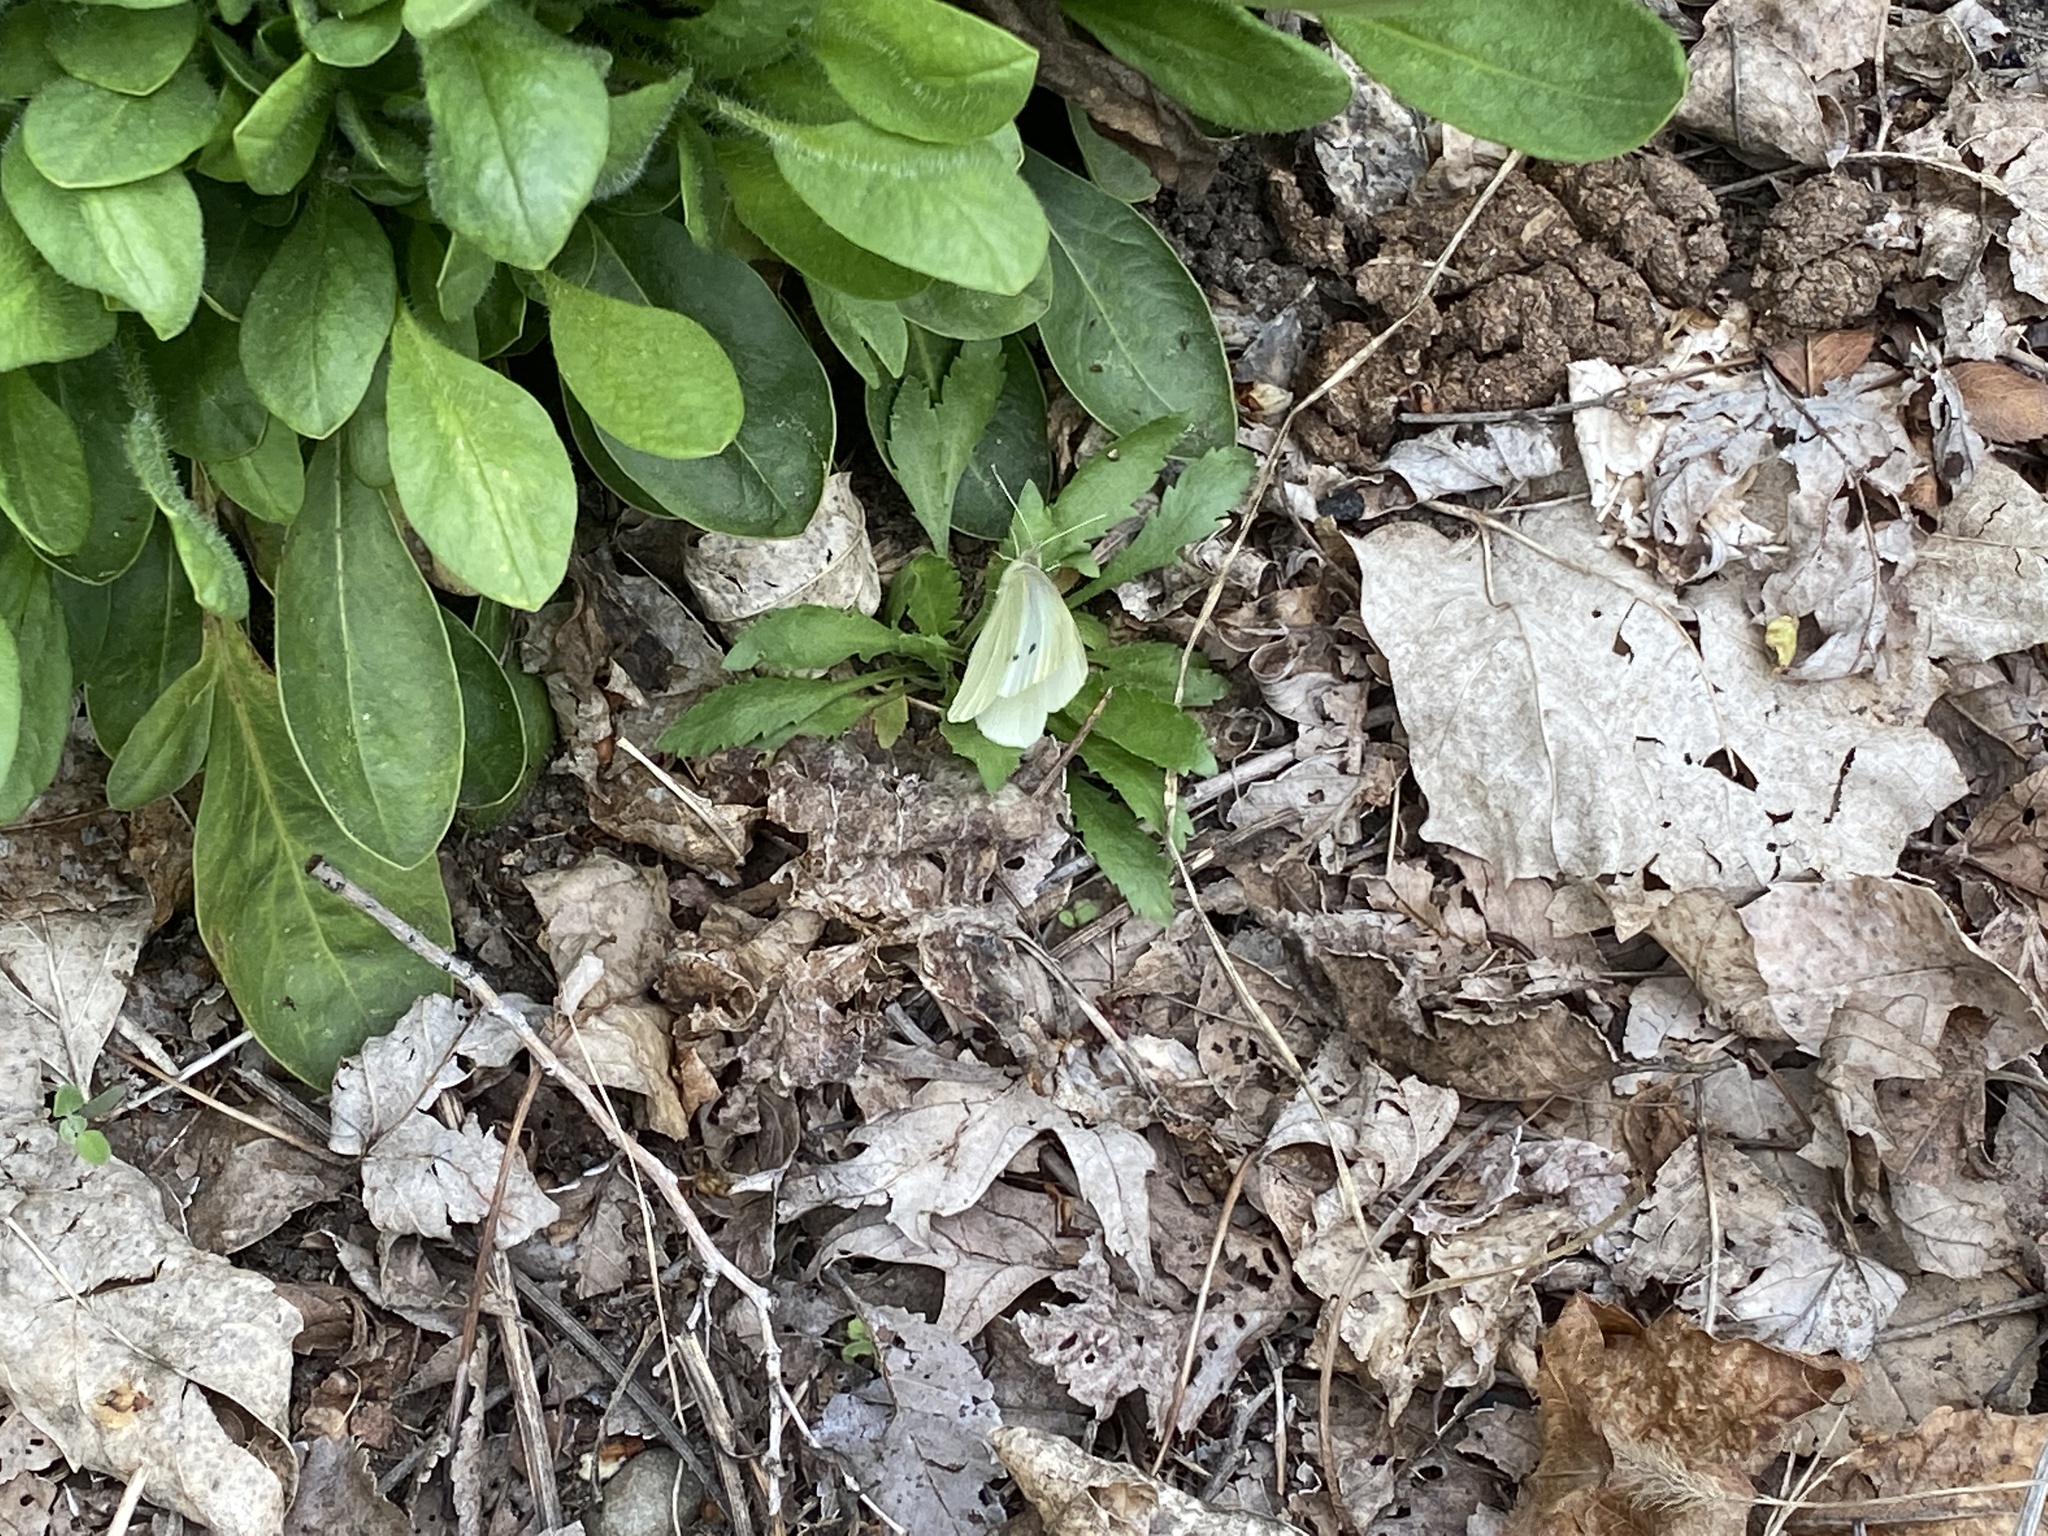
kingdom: Animalia
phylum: Arthropoda
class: Insecta
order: Lepidoptera
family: Pieridae
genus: Pieris
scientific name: Pieris rapae
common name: Small white
